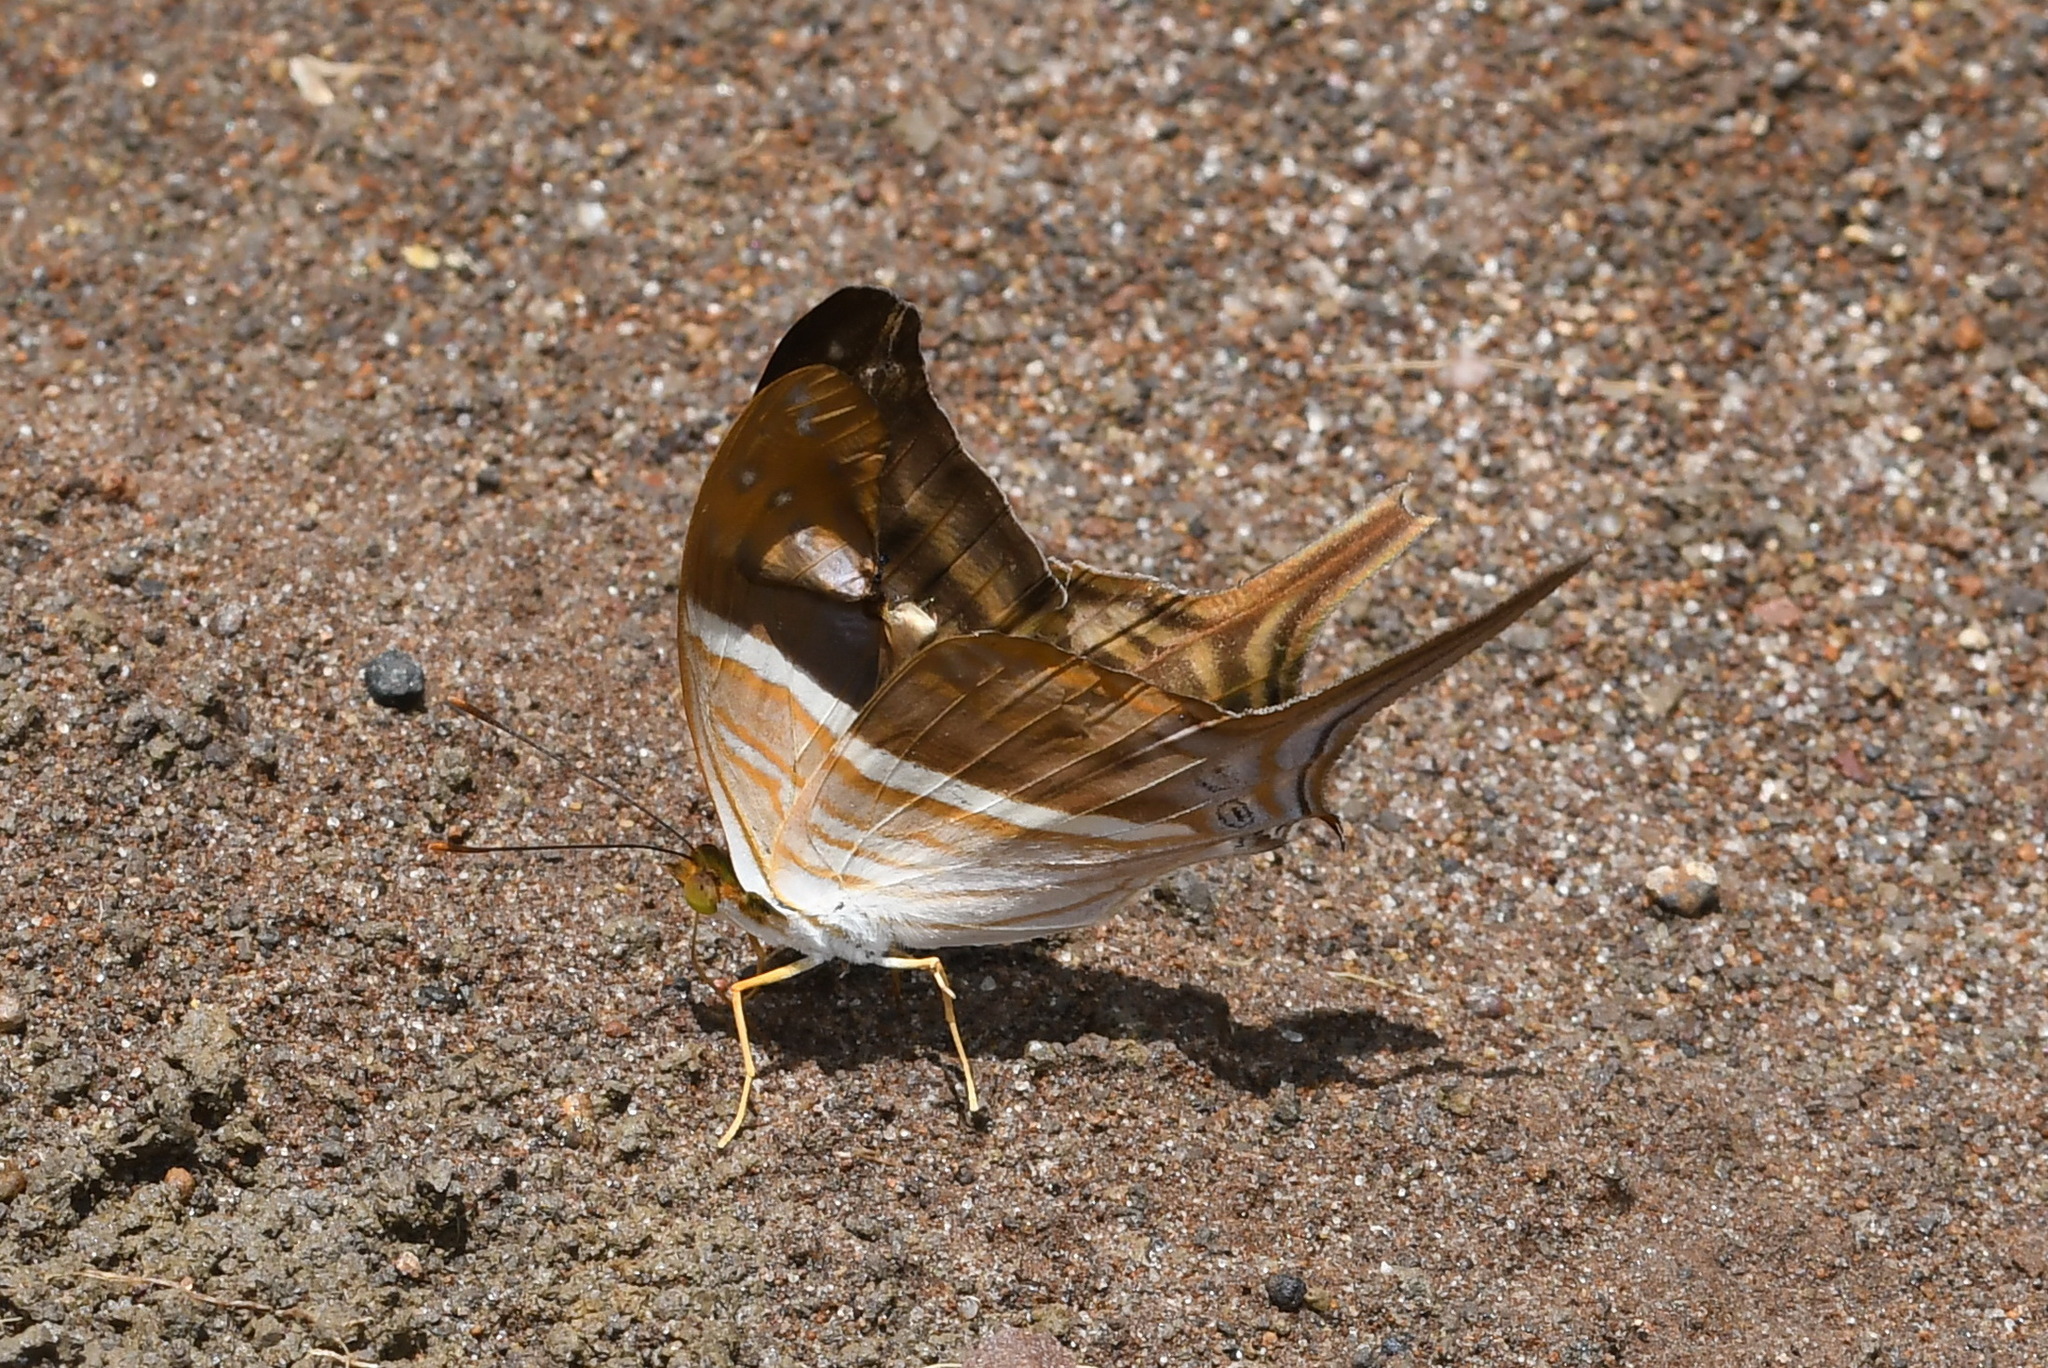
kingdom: Animalia
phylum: Arthropoda
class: Insecta
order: Lepidoptera
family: Nymphalidae
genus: Marpesia
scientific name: Marpesia chiron
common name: Many-banded daggerwing
